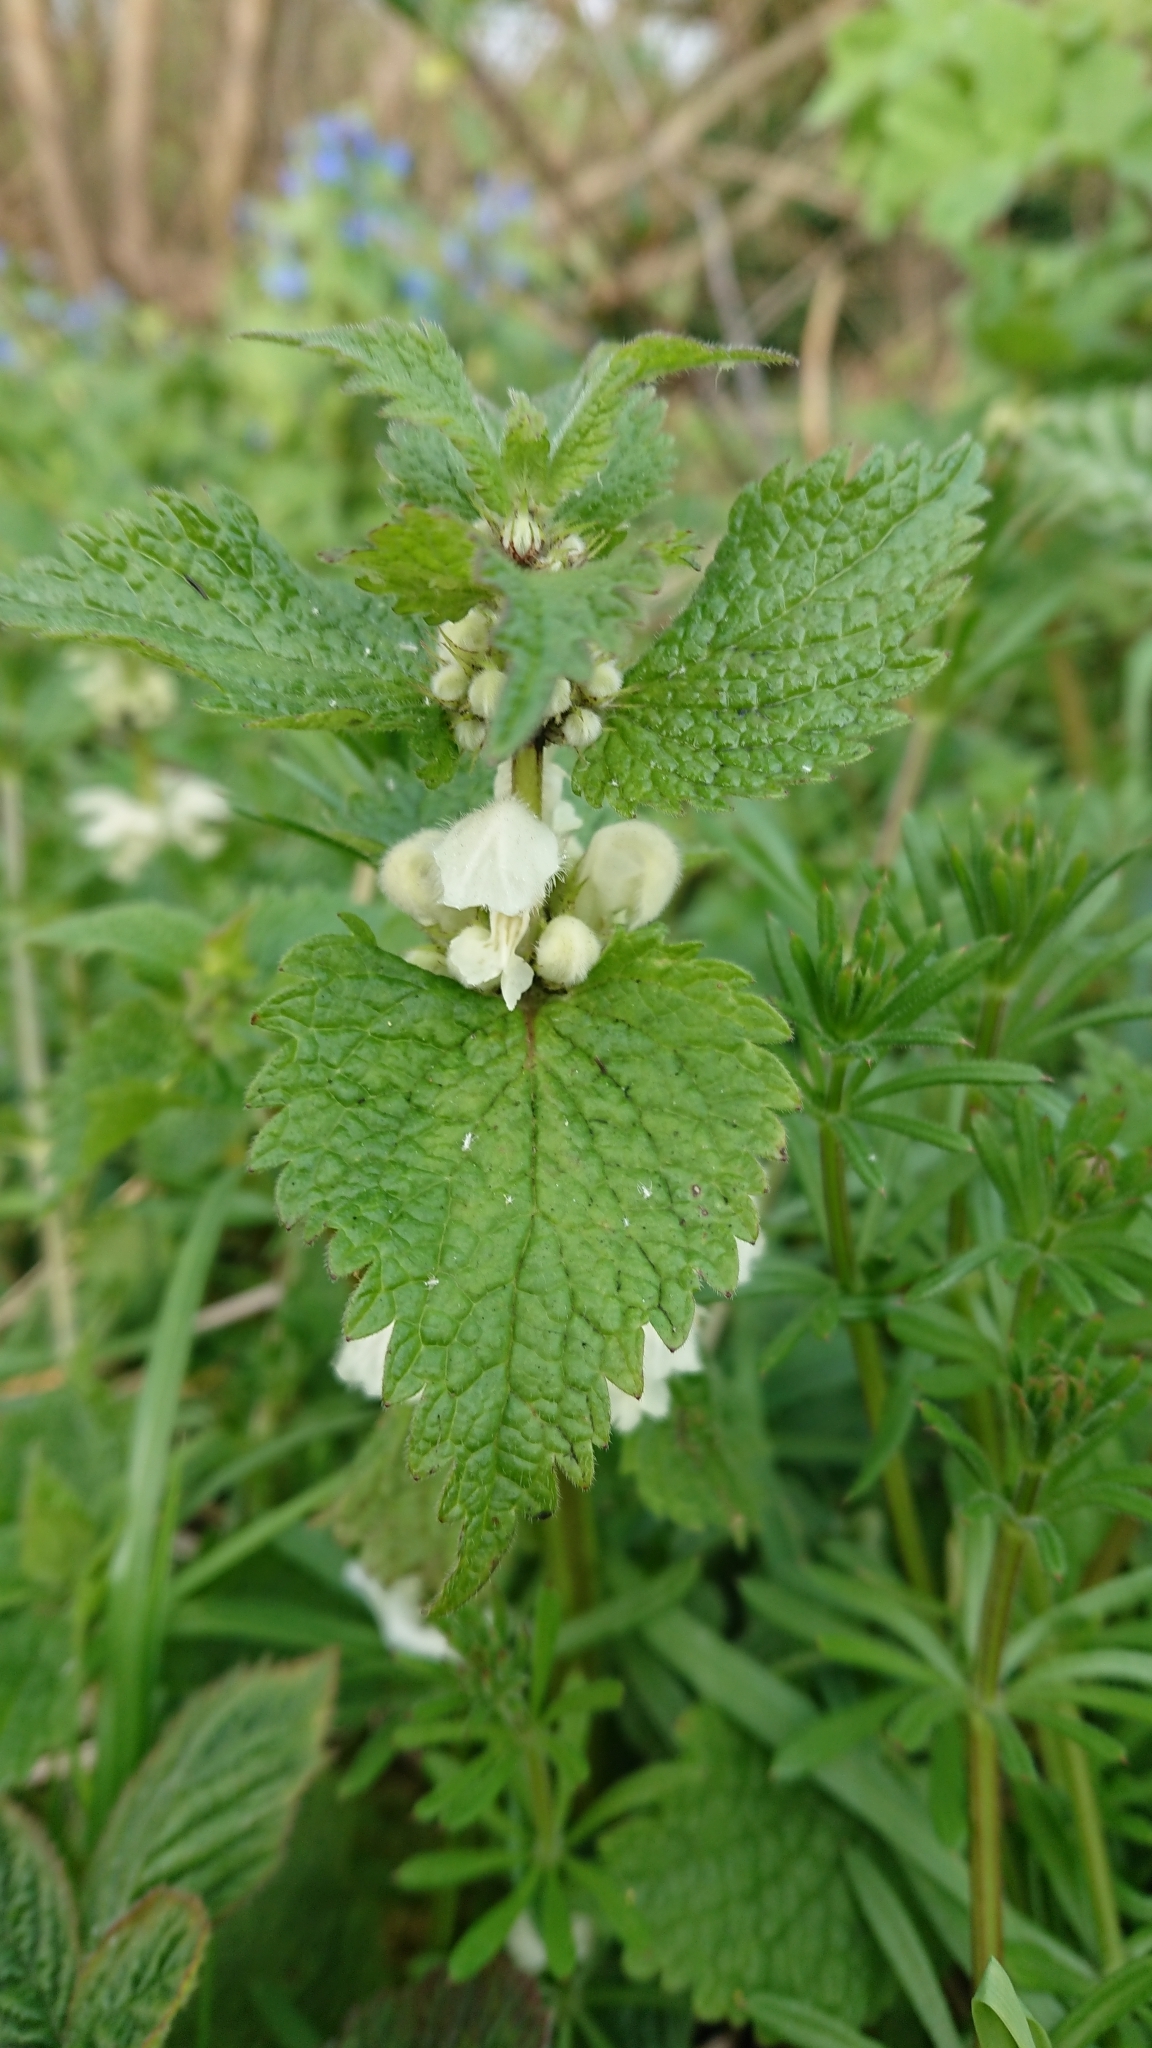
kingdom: Plantae
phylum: Tracheophyta
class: Magnoliopsida
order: Lamiales
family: Lamiaceae
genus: Lamium
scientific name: Lamium album
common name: White dead-nettle
